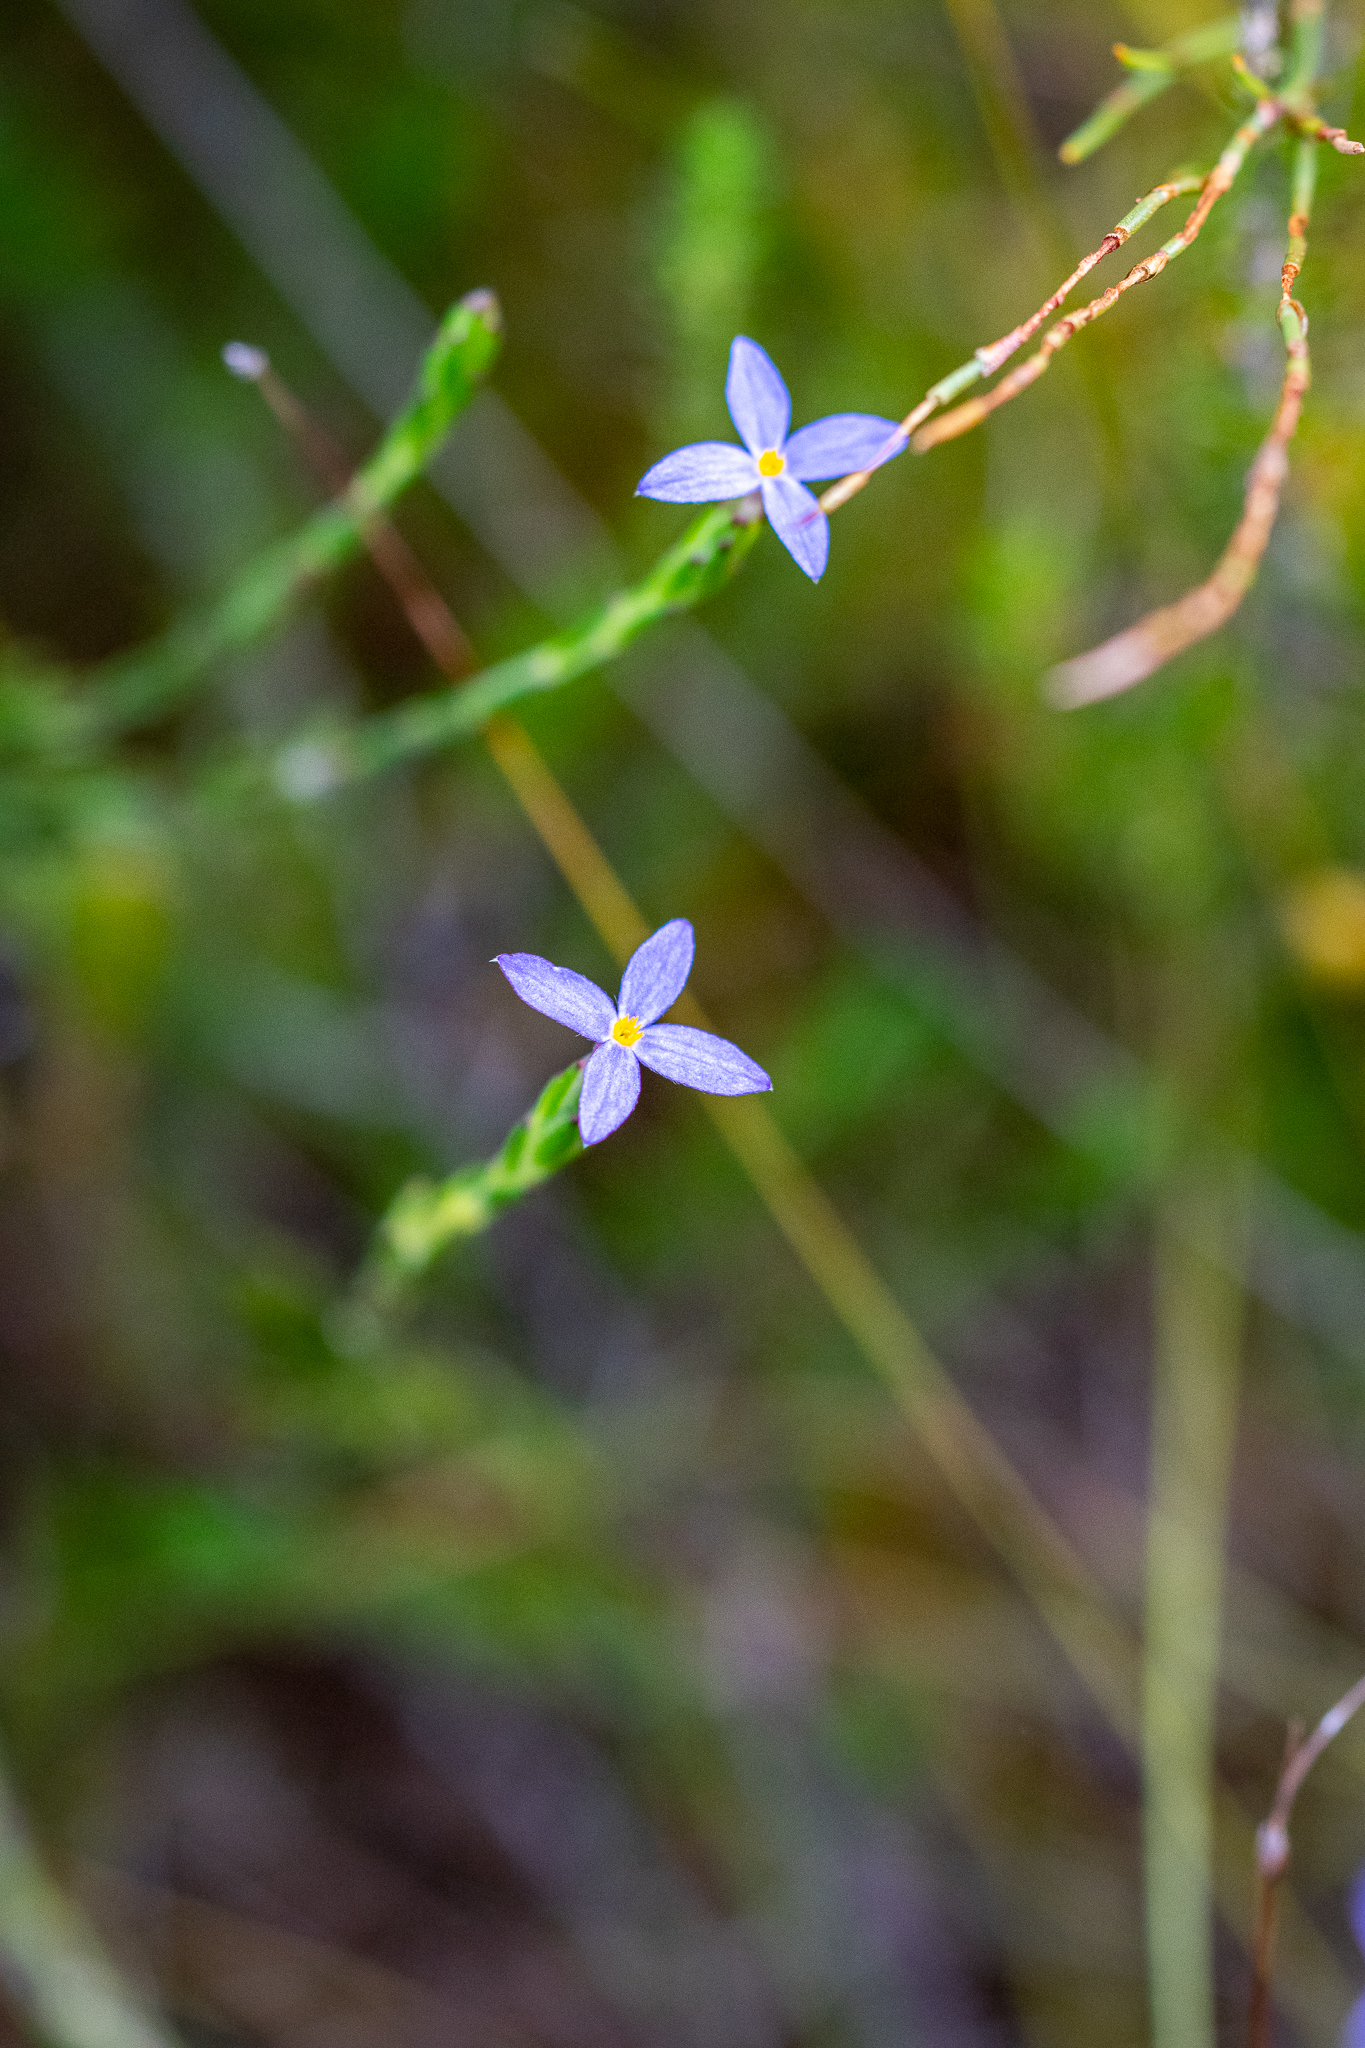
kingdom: Plantae
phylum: Tracheophyta
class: Magnoliopsida
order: Malvales
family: Thymelaeaceae
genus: Gnidia
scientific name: Gnidia penicillata
